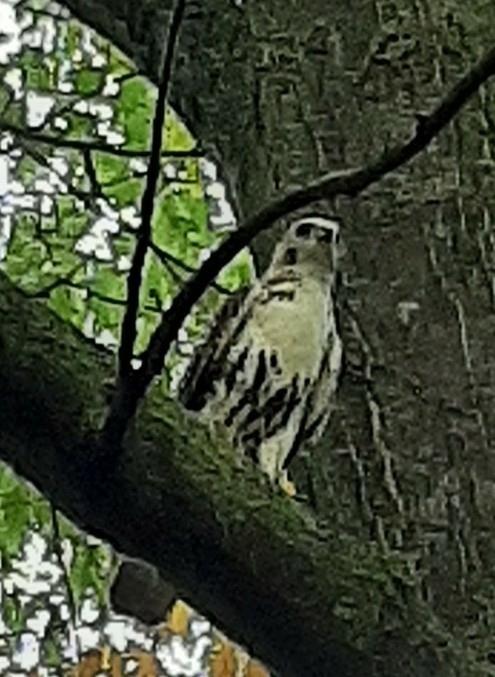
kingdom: Animalia
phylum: Chordata
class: Aves
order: Accipitriformes
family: Accipitridae
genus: Buteo
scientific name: Buteo jamaicensis
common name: Red-tailed hawk
